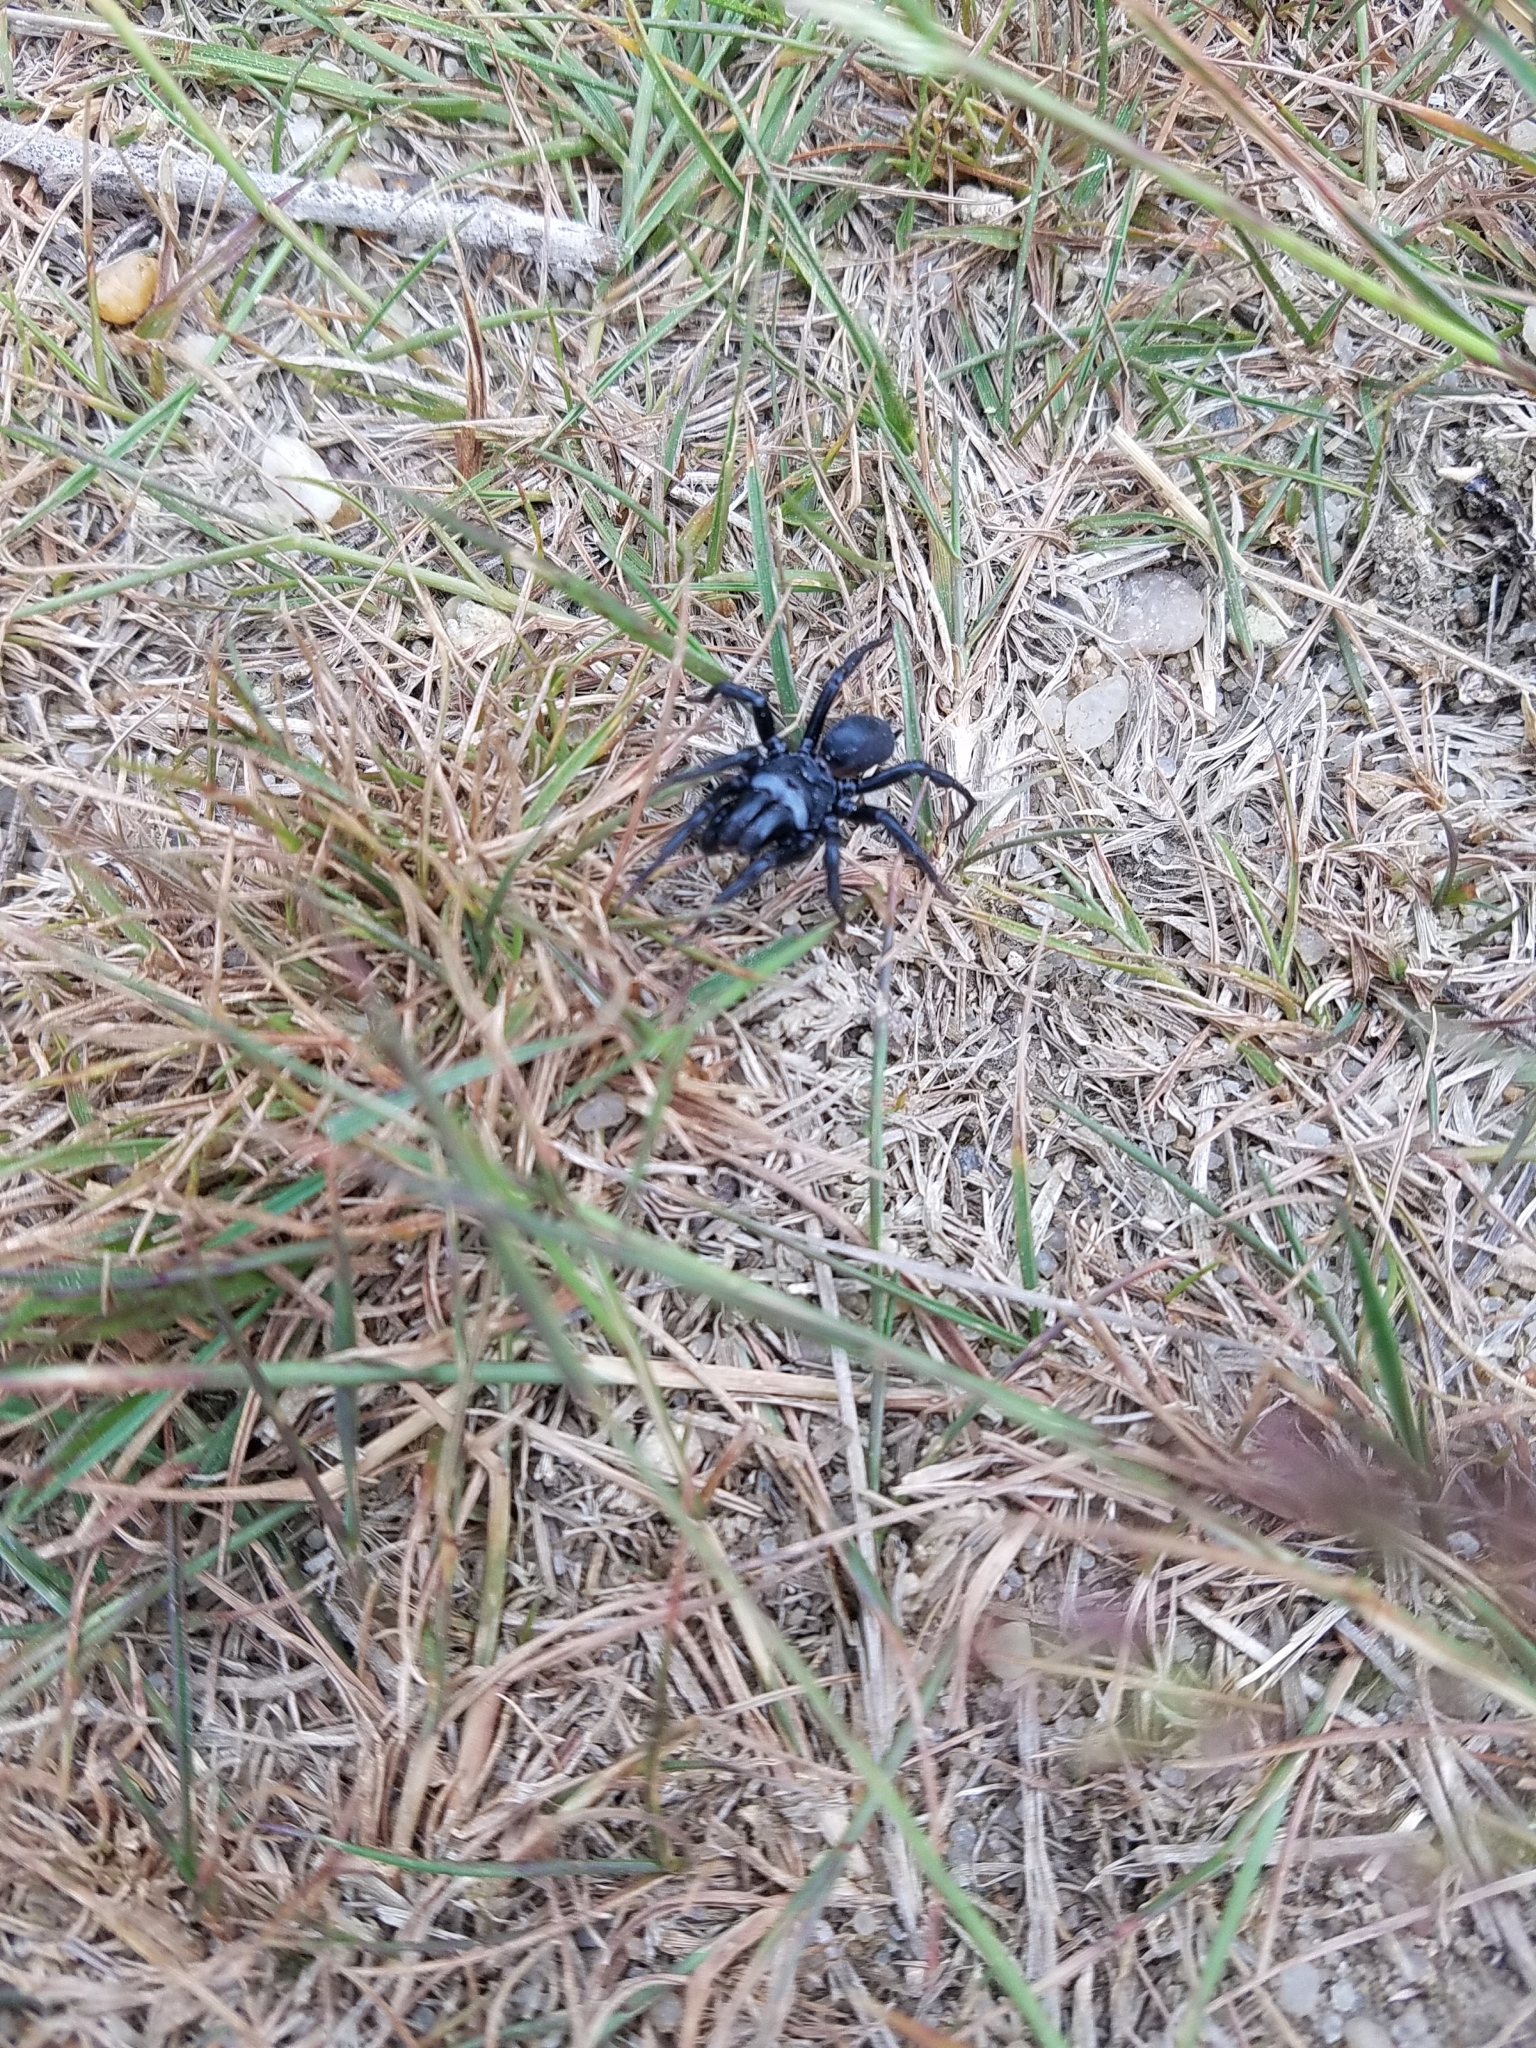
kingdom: Animalia
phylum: Arthropoda
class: Arachnida
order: Araneae
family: Atypidae
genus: Sphodros
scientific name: Sphodros niger
